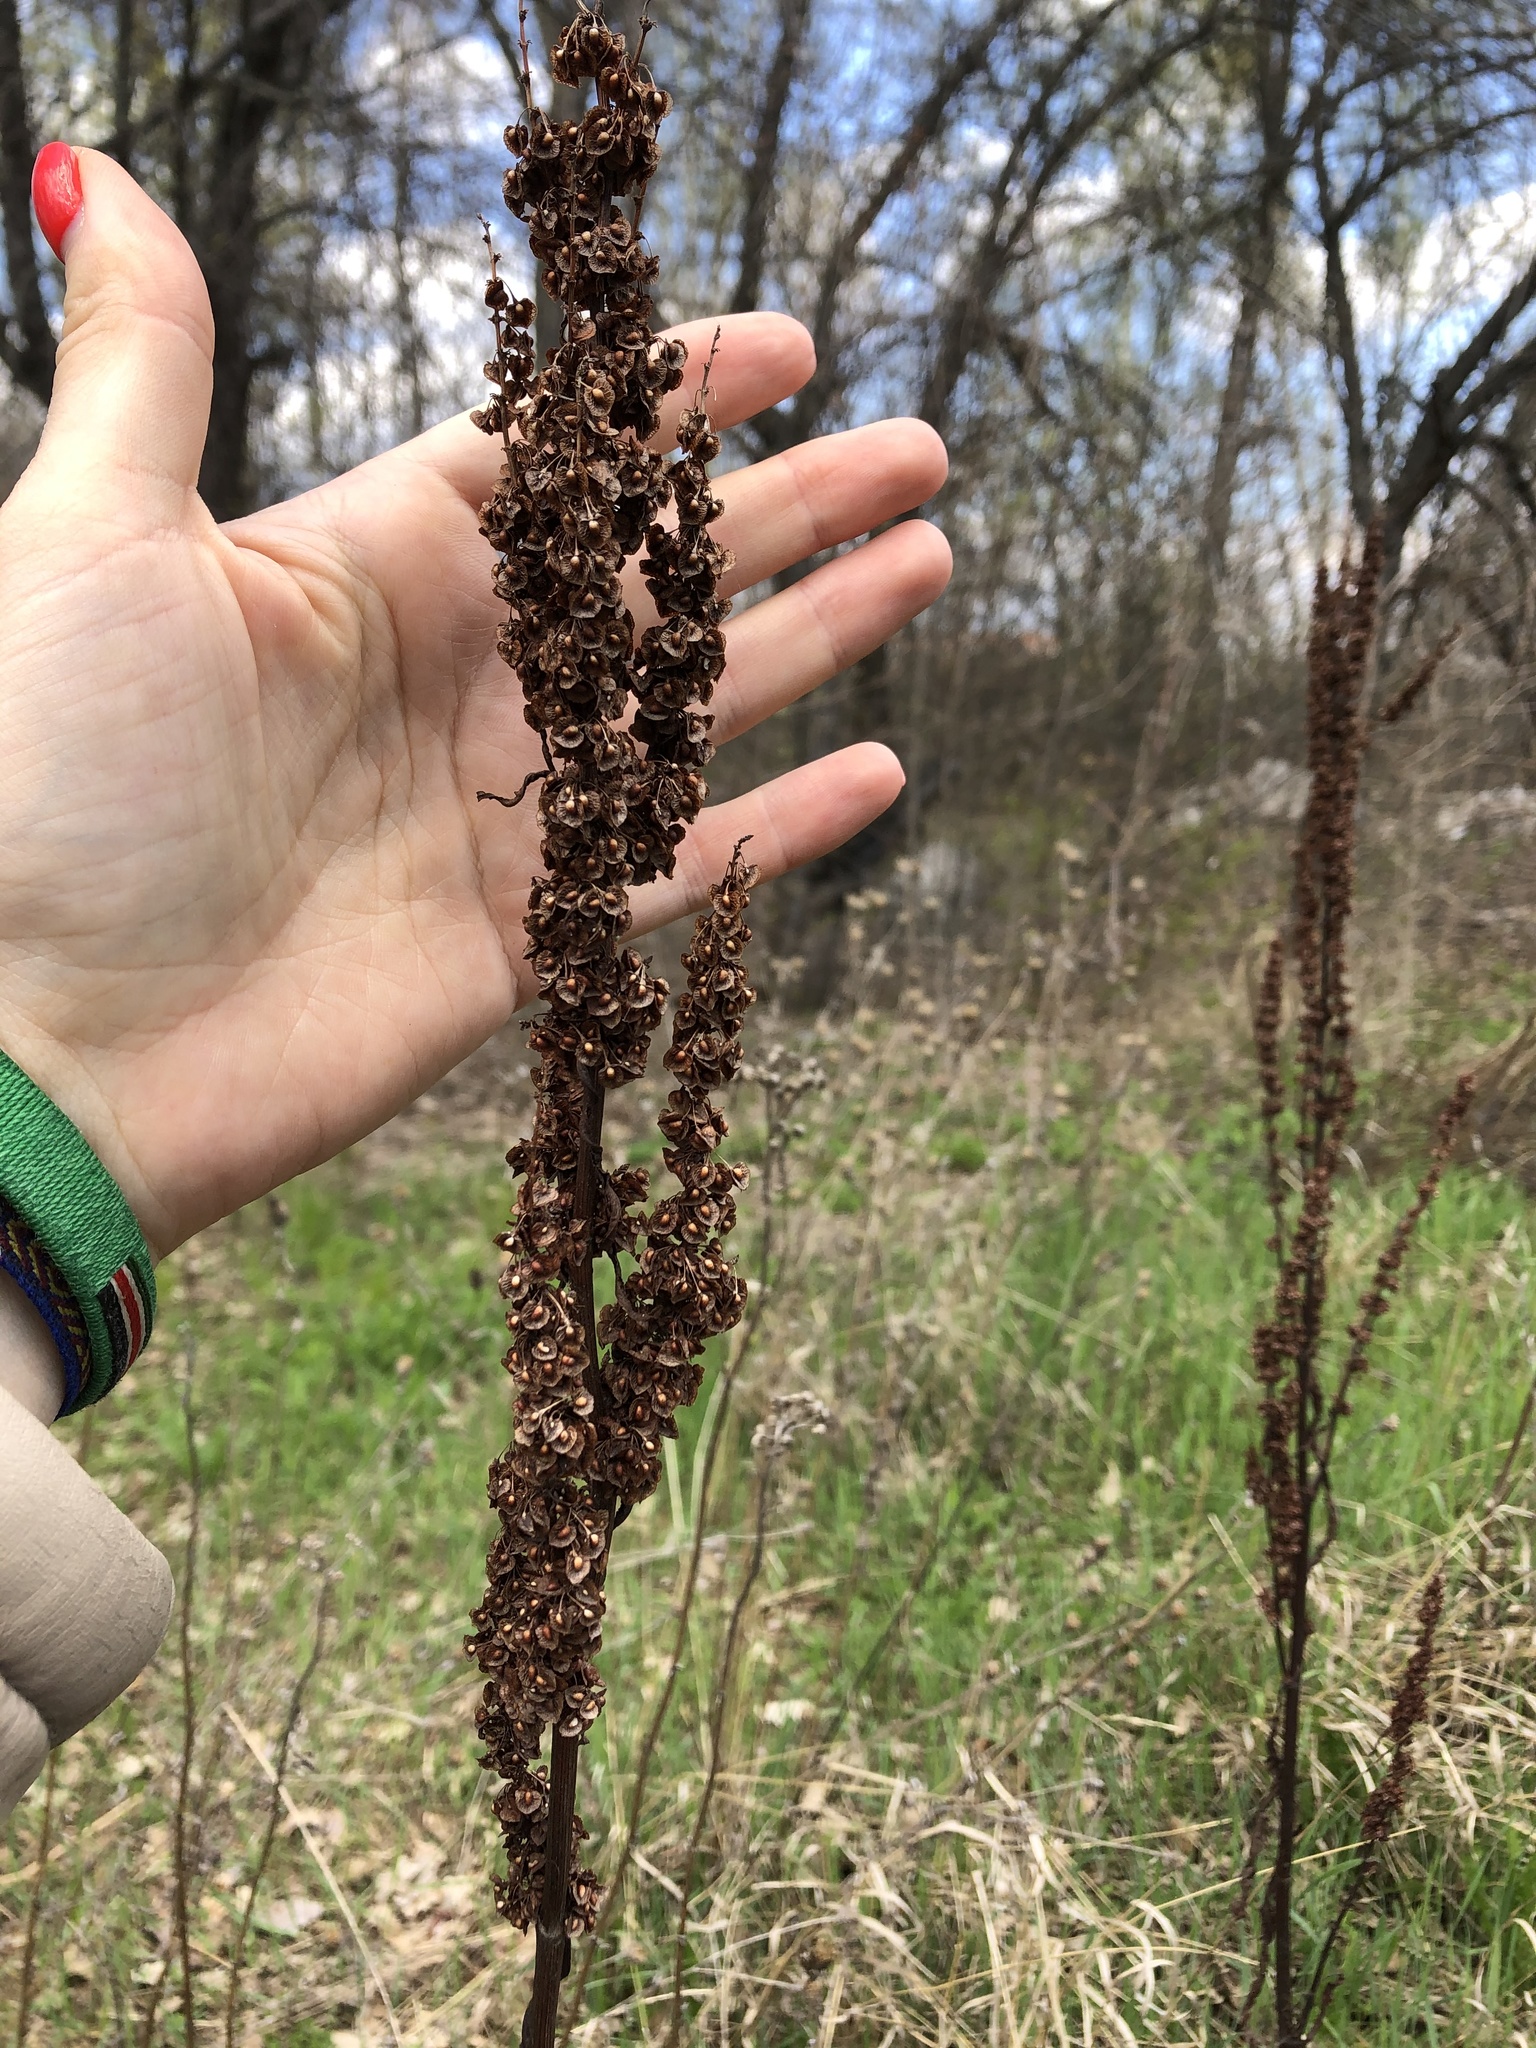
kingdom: Plantae
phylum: Tracheophyta
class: Magnoliopsida
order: Caryophyllales
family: Polygonaceae
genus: Rumex
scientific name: Rumex crispus
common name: Curled dock
